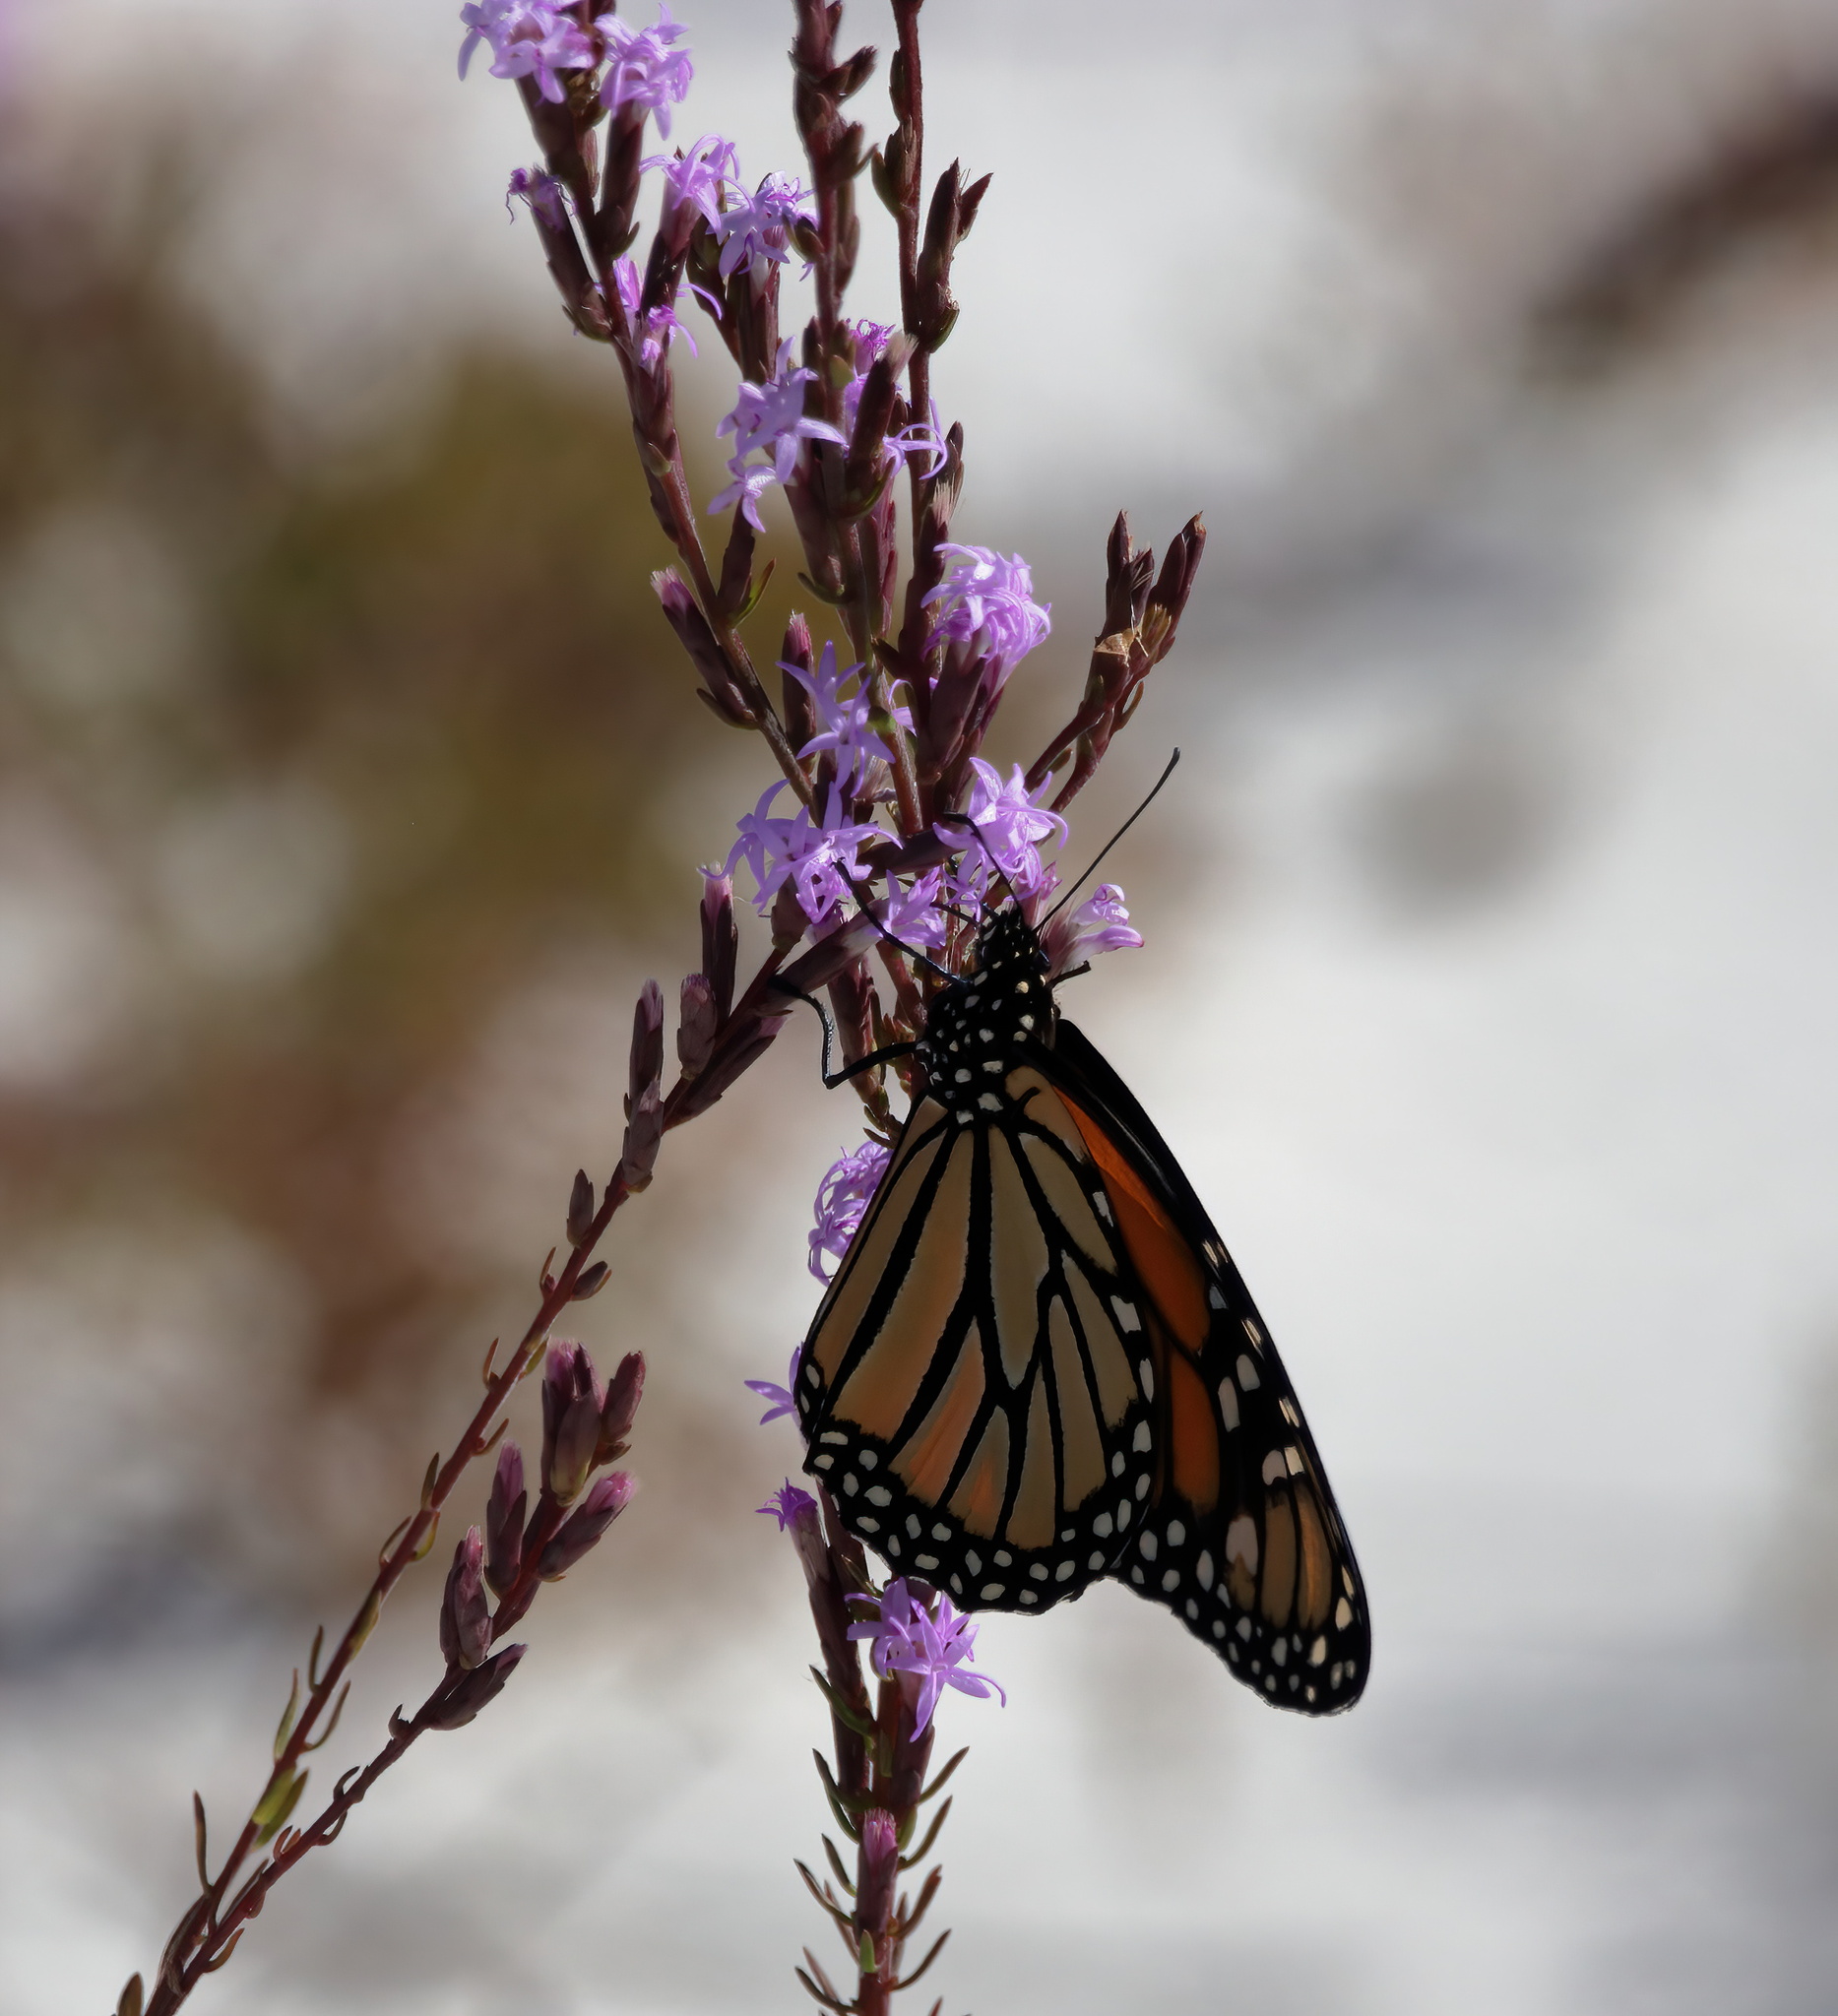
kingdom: Animalia
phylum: Arthropoda
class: Insecta
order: Lepidoptera
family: Nymphalidae
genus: Danaus
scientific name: Danaus plexippus
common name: Monarch
